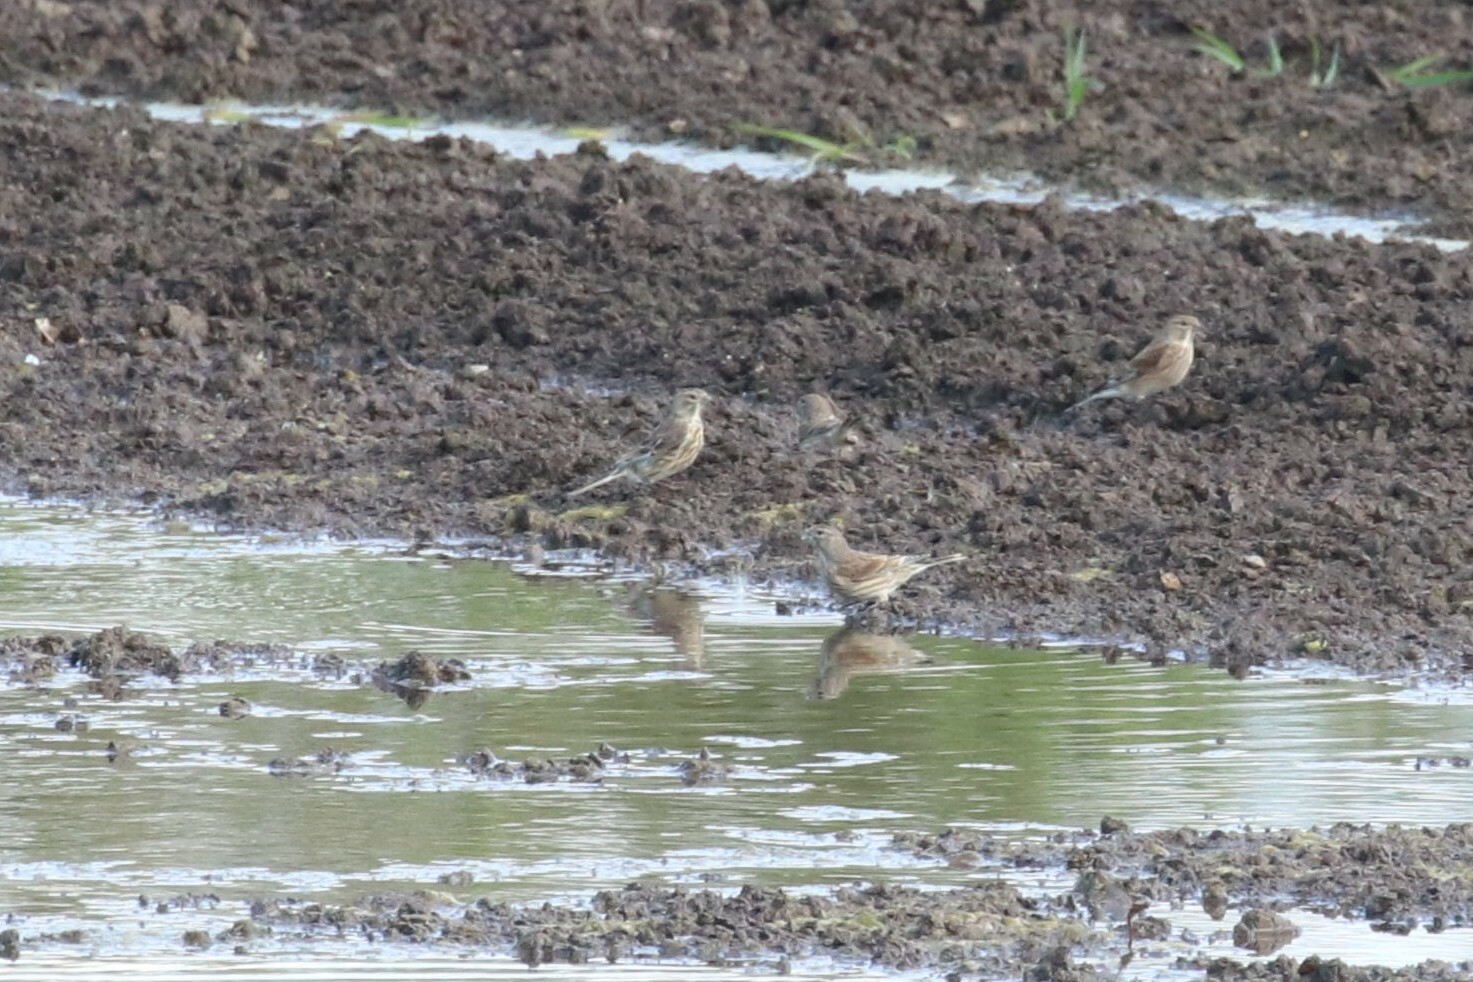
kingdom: Animalia
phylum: Chordata
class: Aves
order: Passeriformes
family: Fringillidae
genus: Linaria
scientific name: Linaria cannabina
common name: Common linnet
